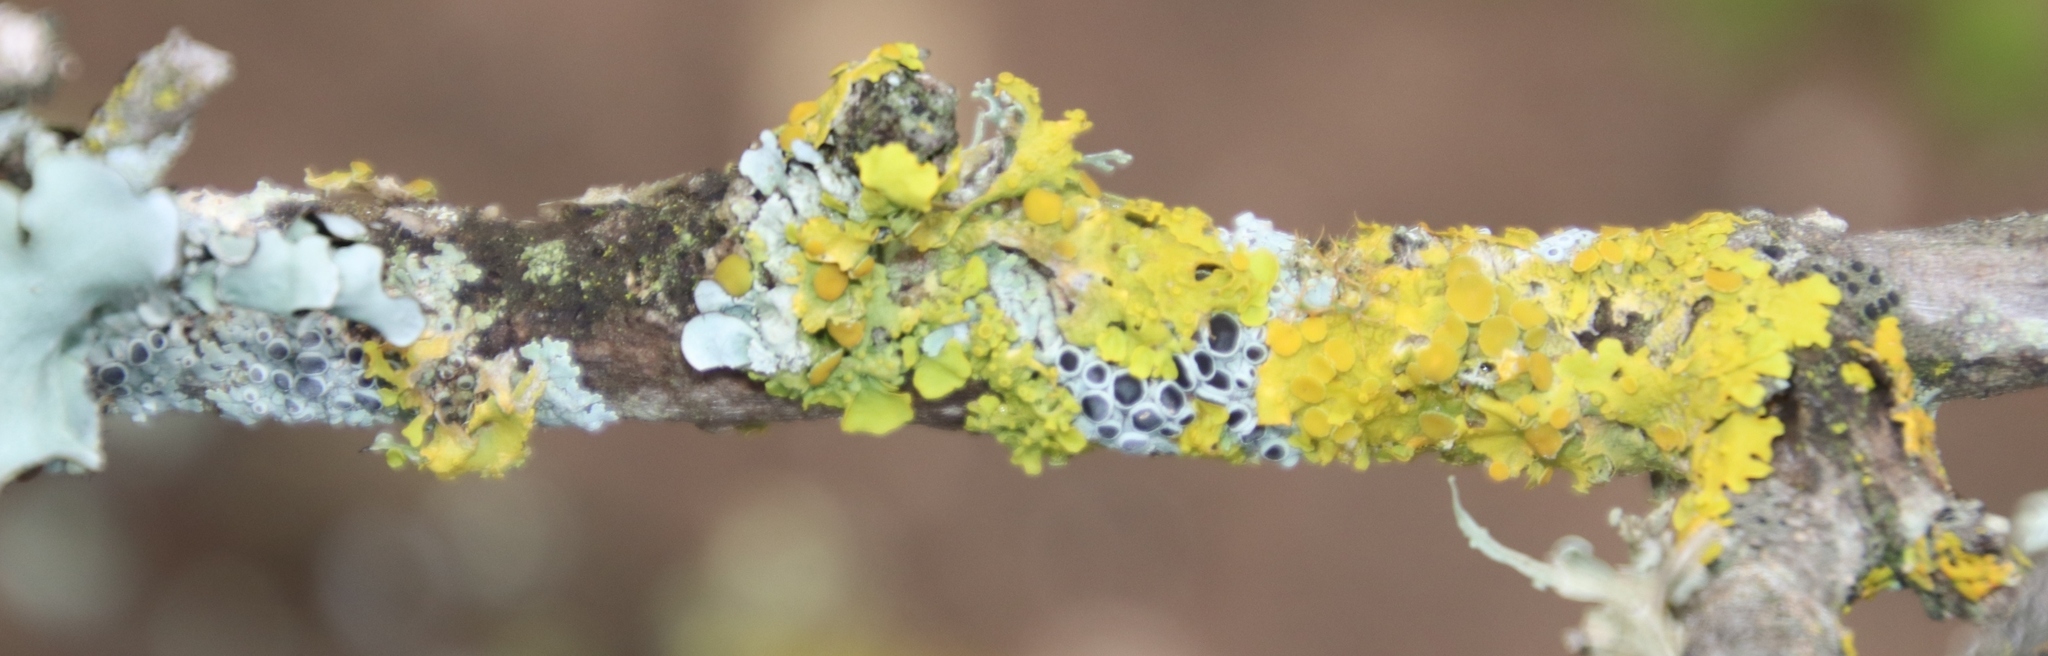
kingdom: Fungi
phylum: Ascomycota
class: Lecanoromycetes
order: Teloschistales
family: Teloschistaceae
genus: Xanthoria
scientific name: Xanthoria parietina
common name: Common orange lichen
